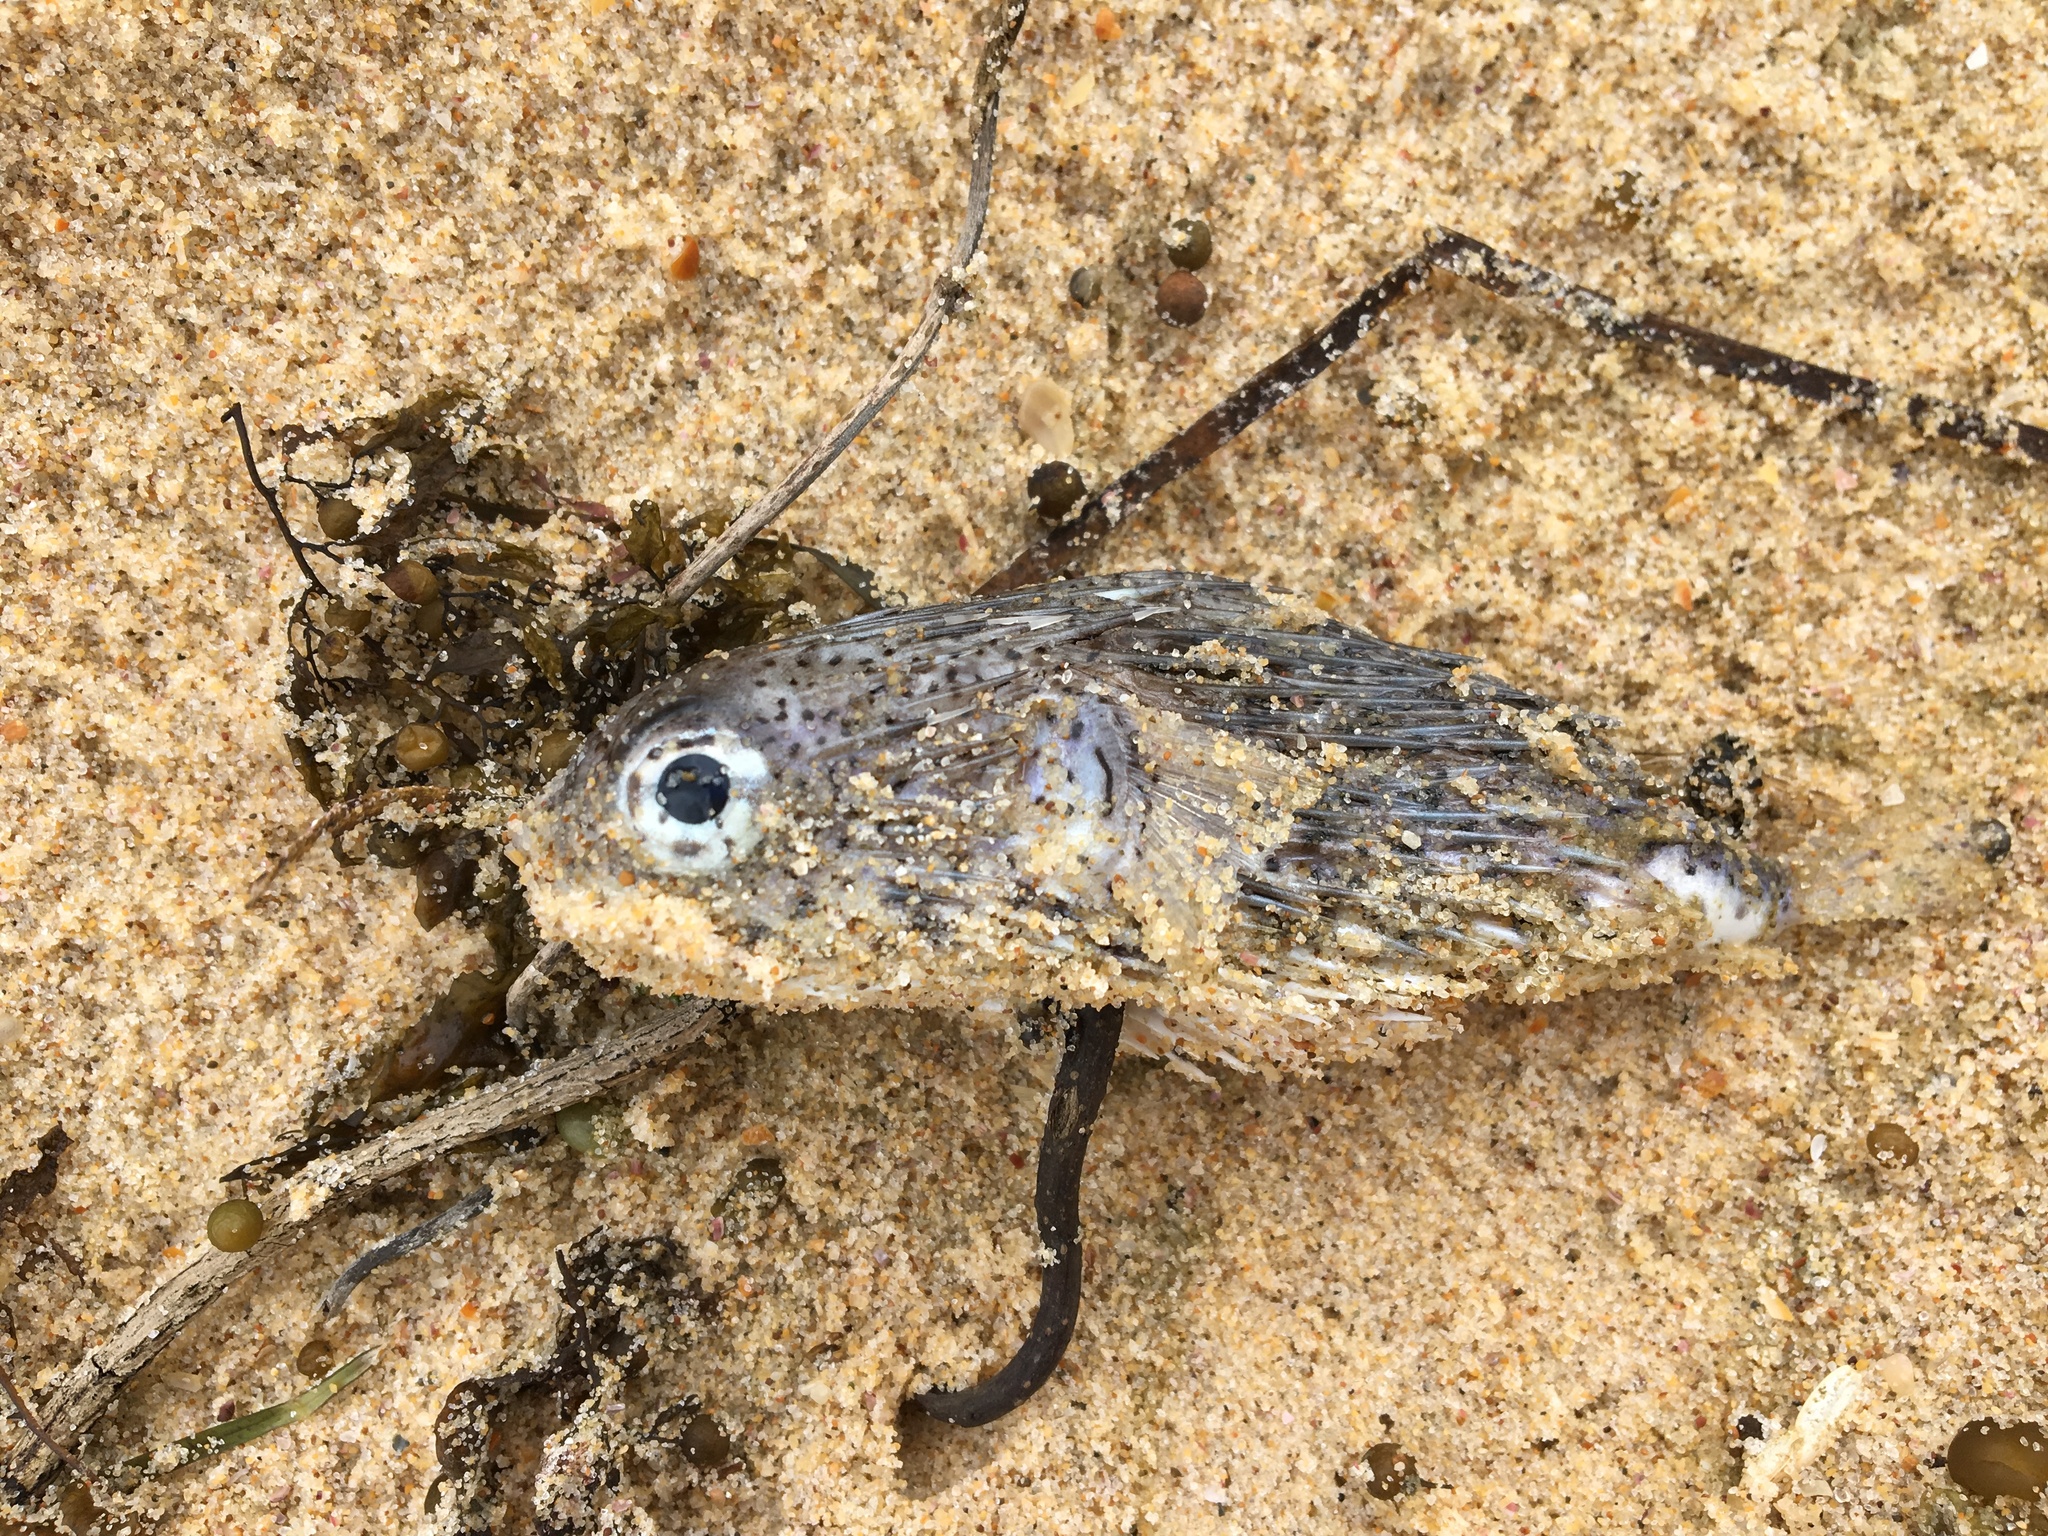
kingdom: Animalia
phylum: Chordata
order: Tetraodontiformes
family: Diodontidae
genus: Diodon
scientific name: Diodon holocanthus
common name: Balloonfish
